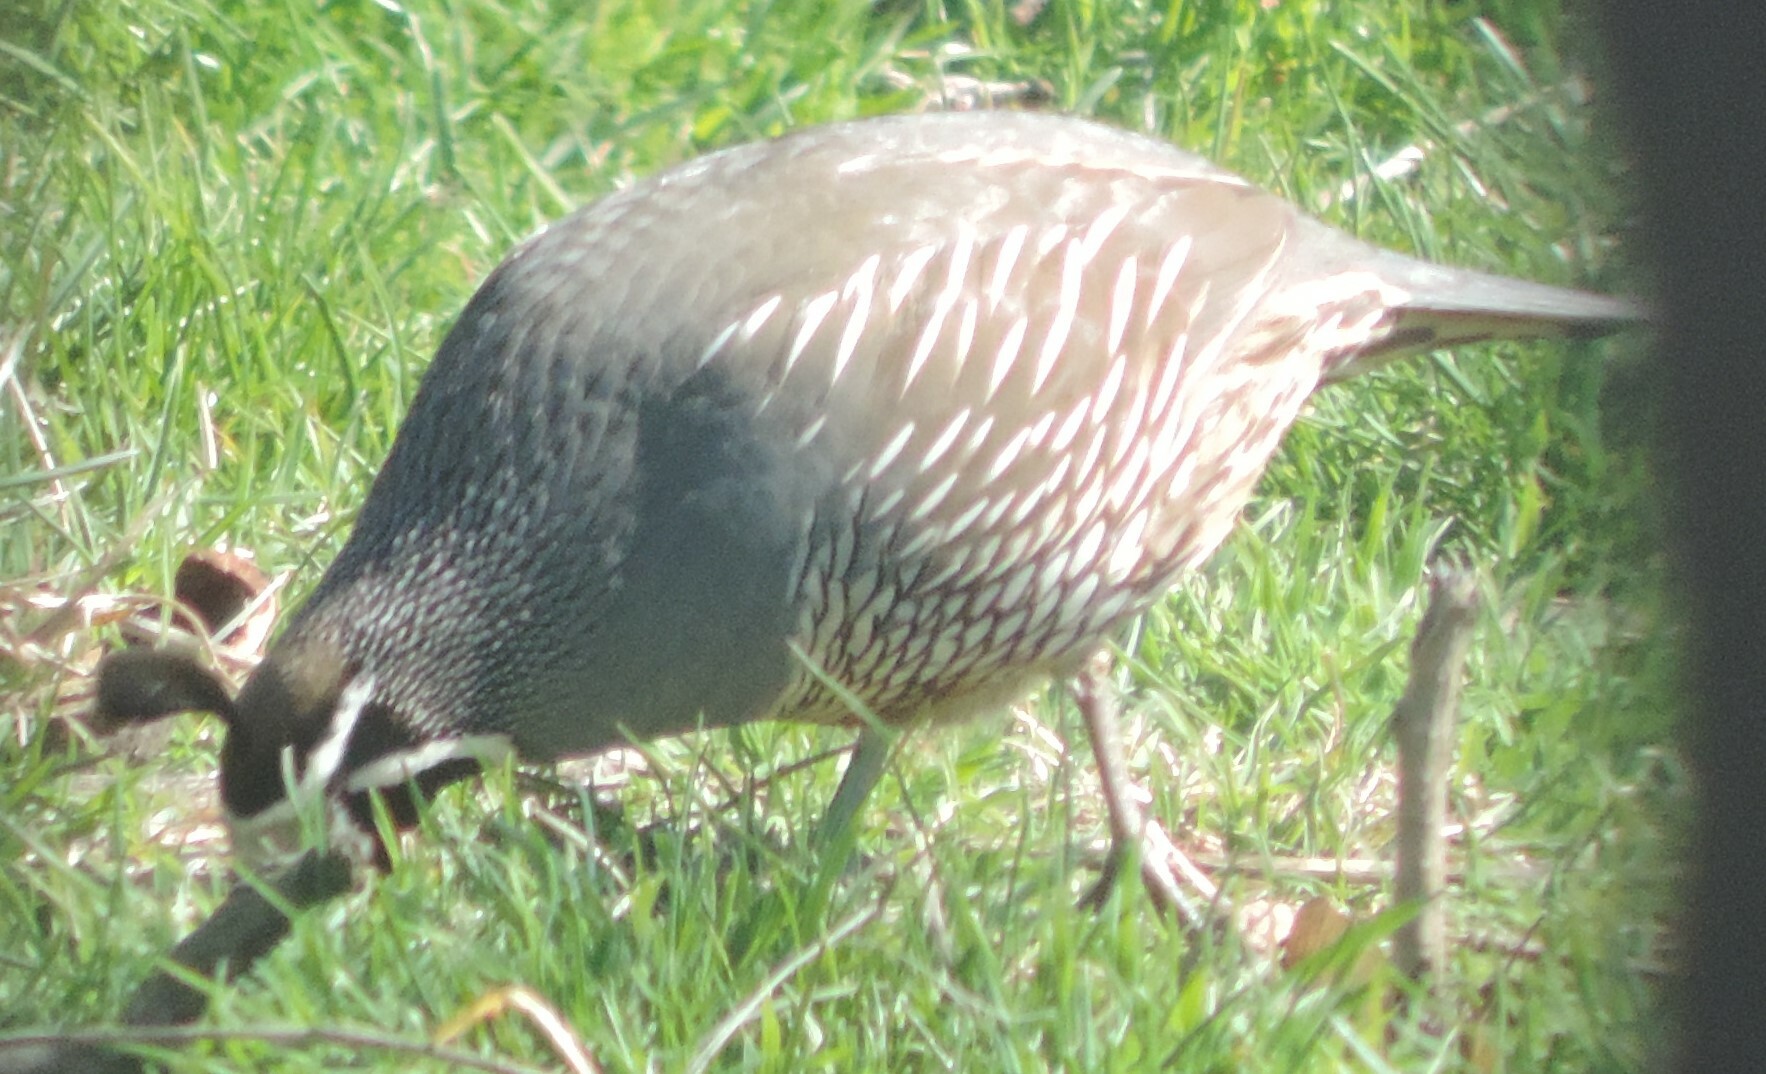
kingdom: Animalia
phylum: Chordata
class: Aves
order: Galliformes
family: Odontophoridae
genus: Callipepla
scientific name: Callipepla californica
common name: California quail
